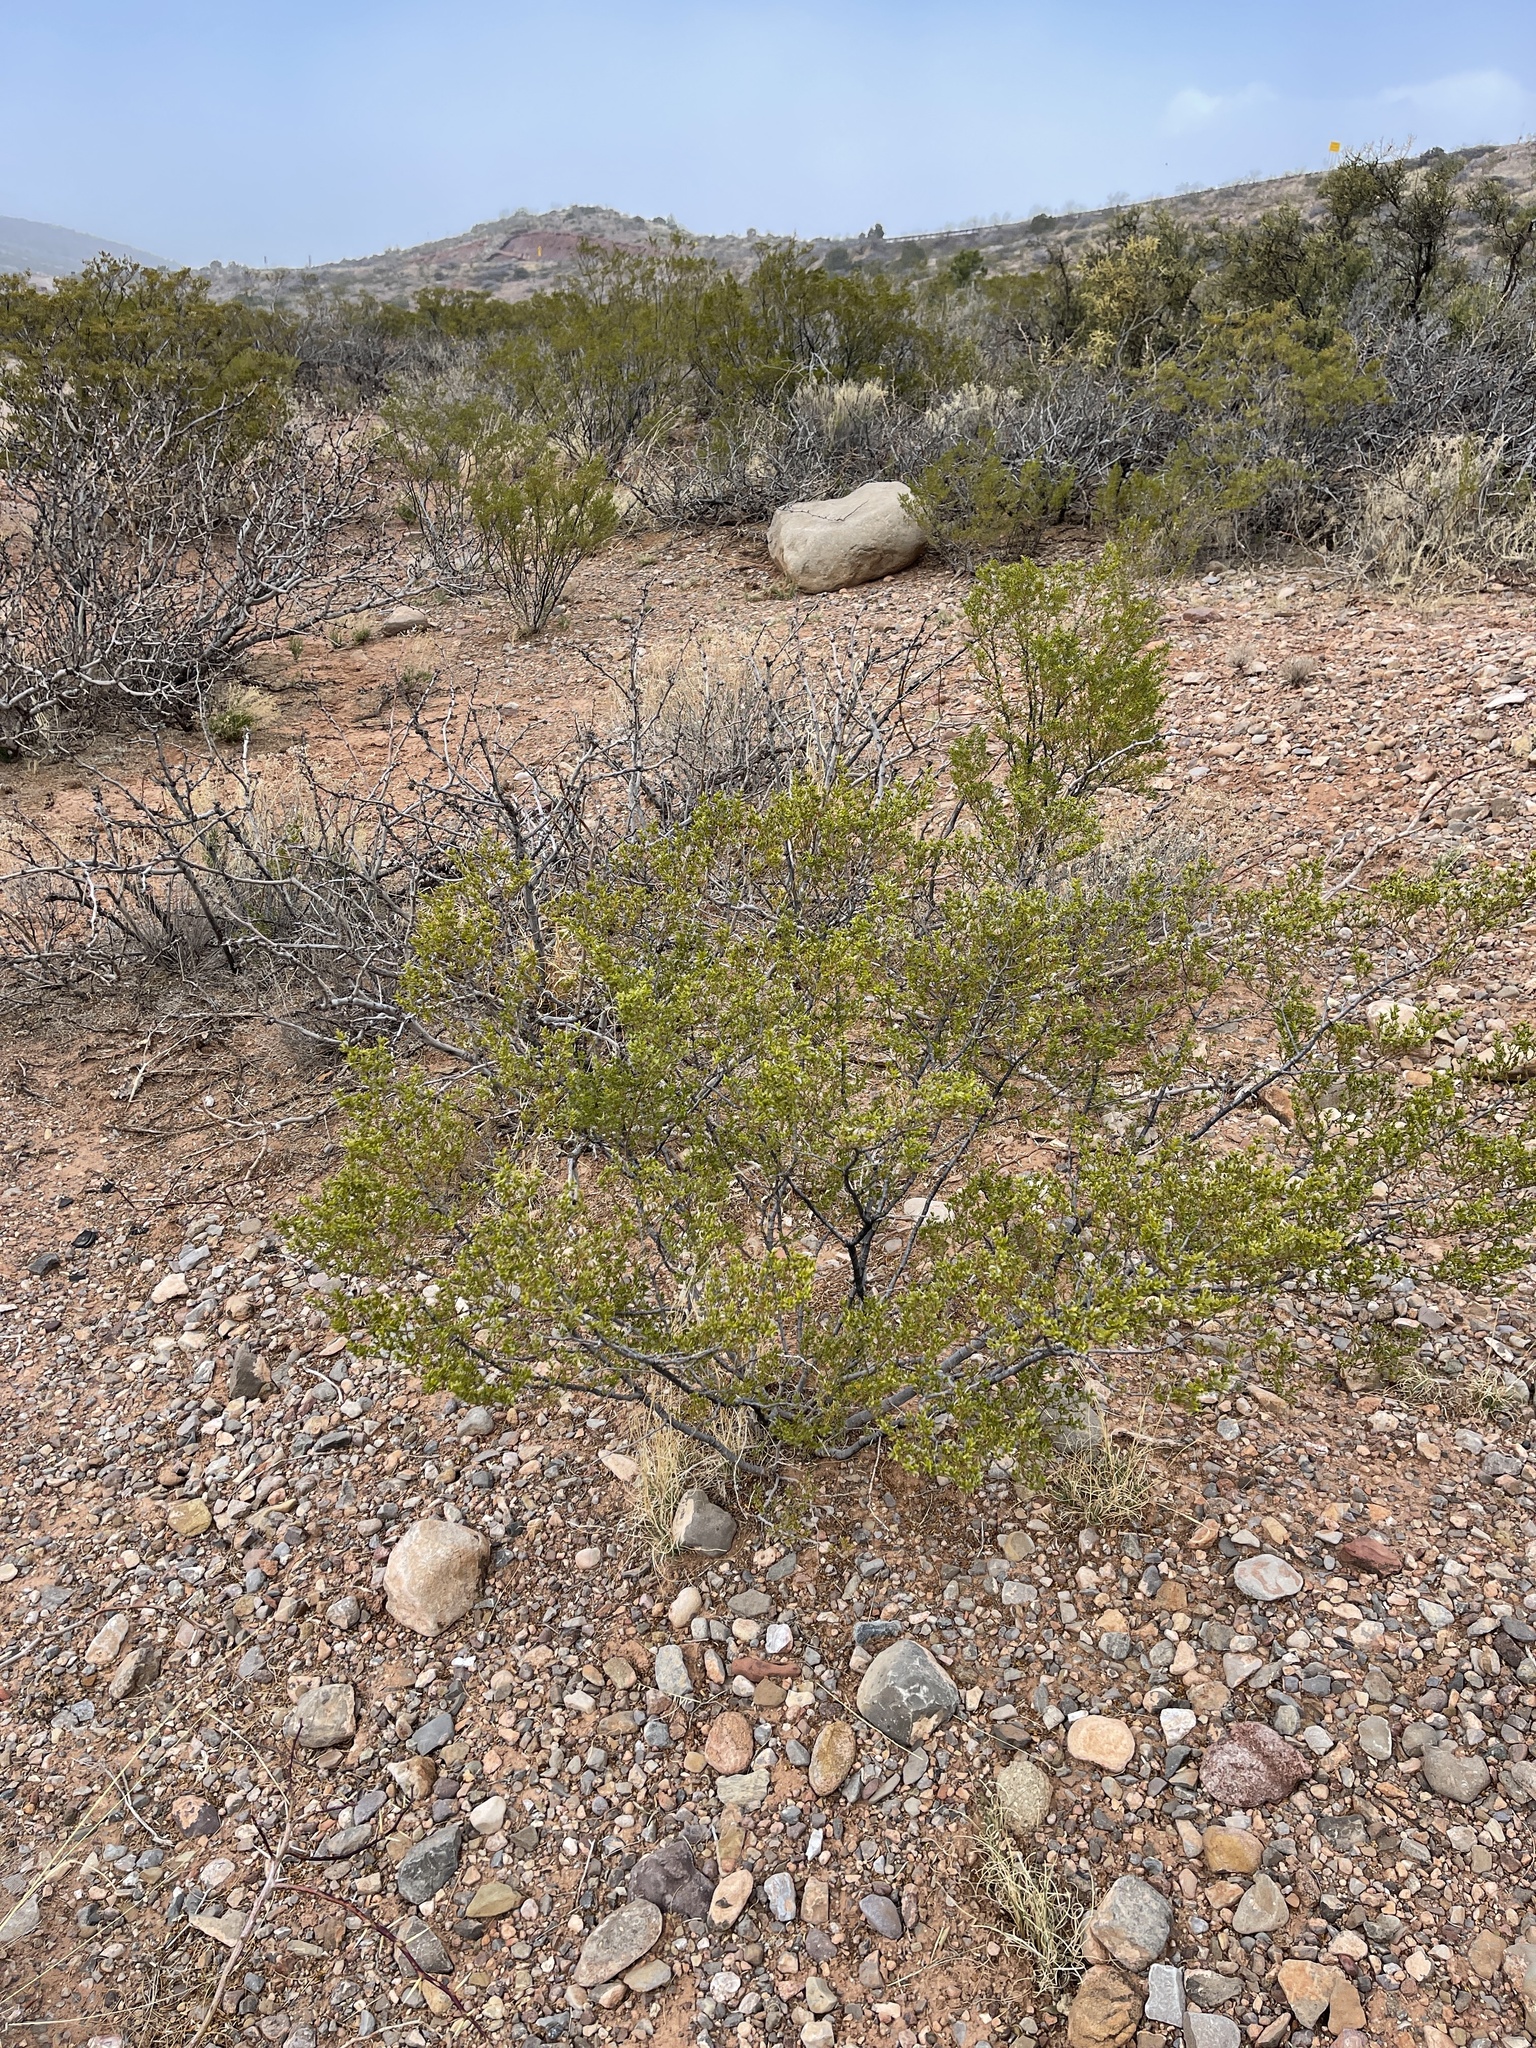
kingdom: Plantae
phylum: Tracheophyta
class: Magnoliopsida
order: Zygophyllales
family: Zygophyllaceae
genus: Larrea
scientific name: Larrea tridentata
